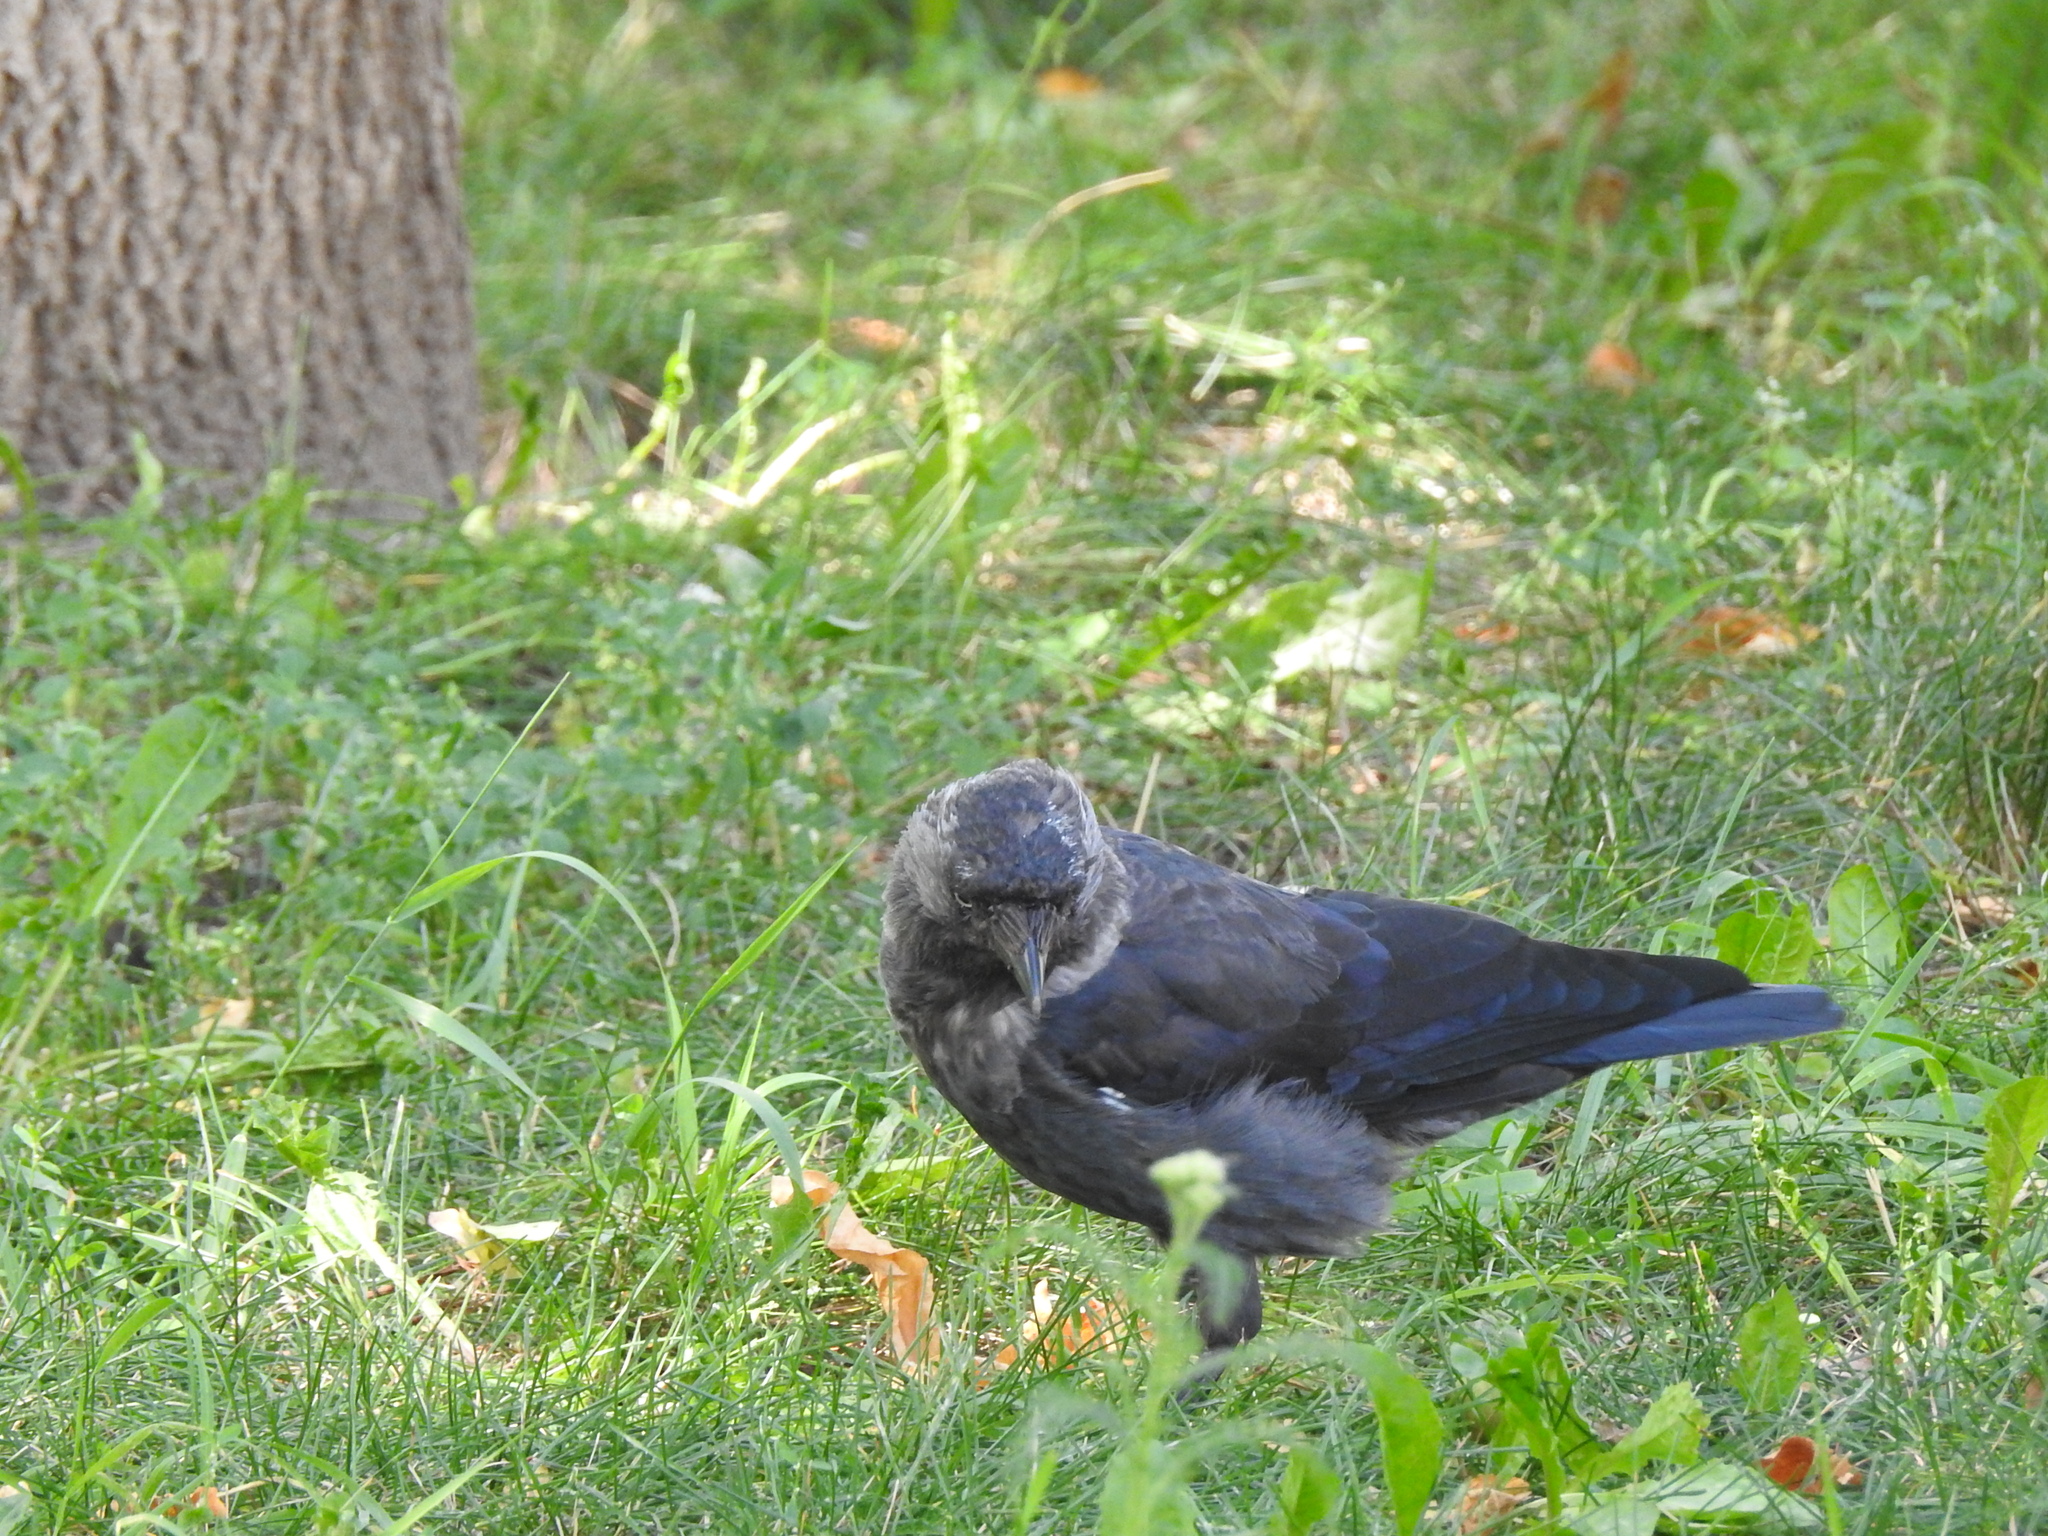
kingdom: Animalia
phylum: Chordata
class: Aves
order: Passeriformes
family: Corvidae
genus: Coloeus
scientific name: Coloeus monedula
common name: Western jackdaw
